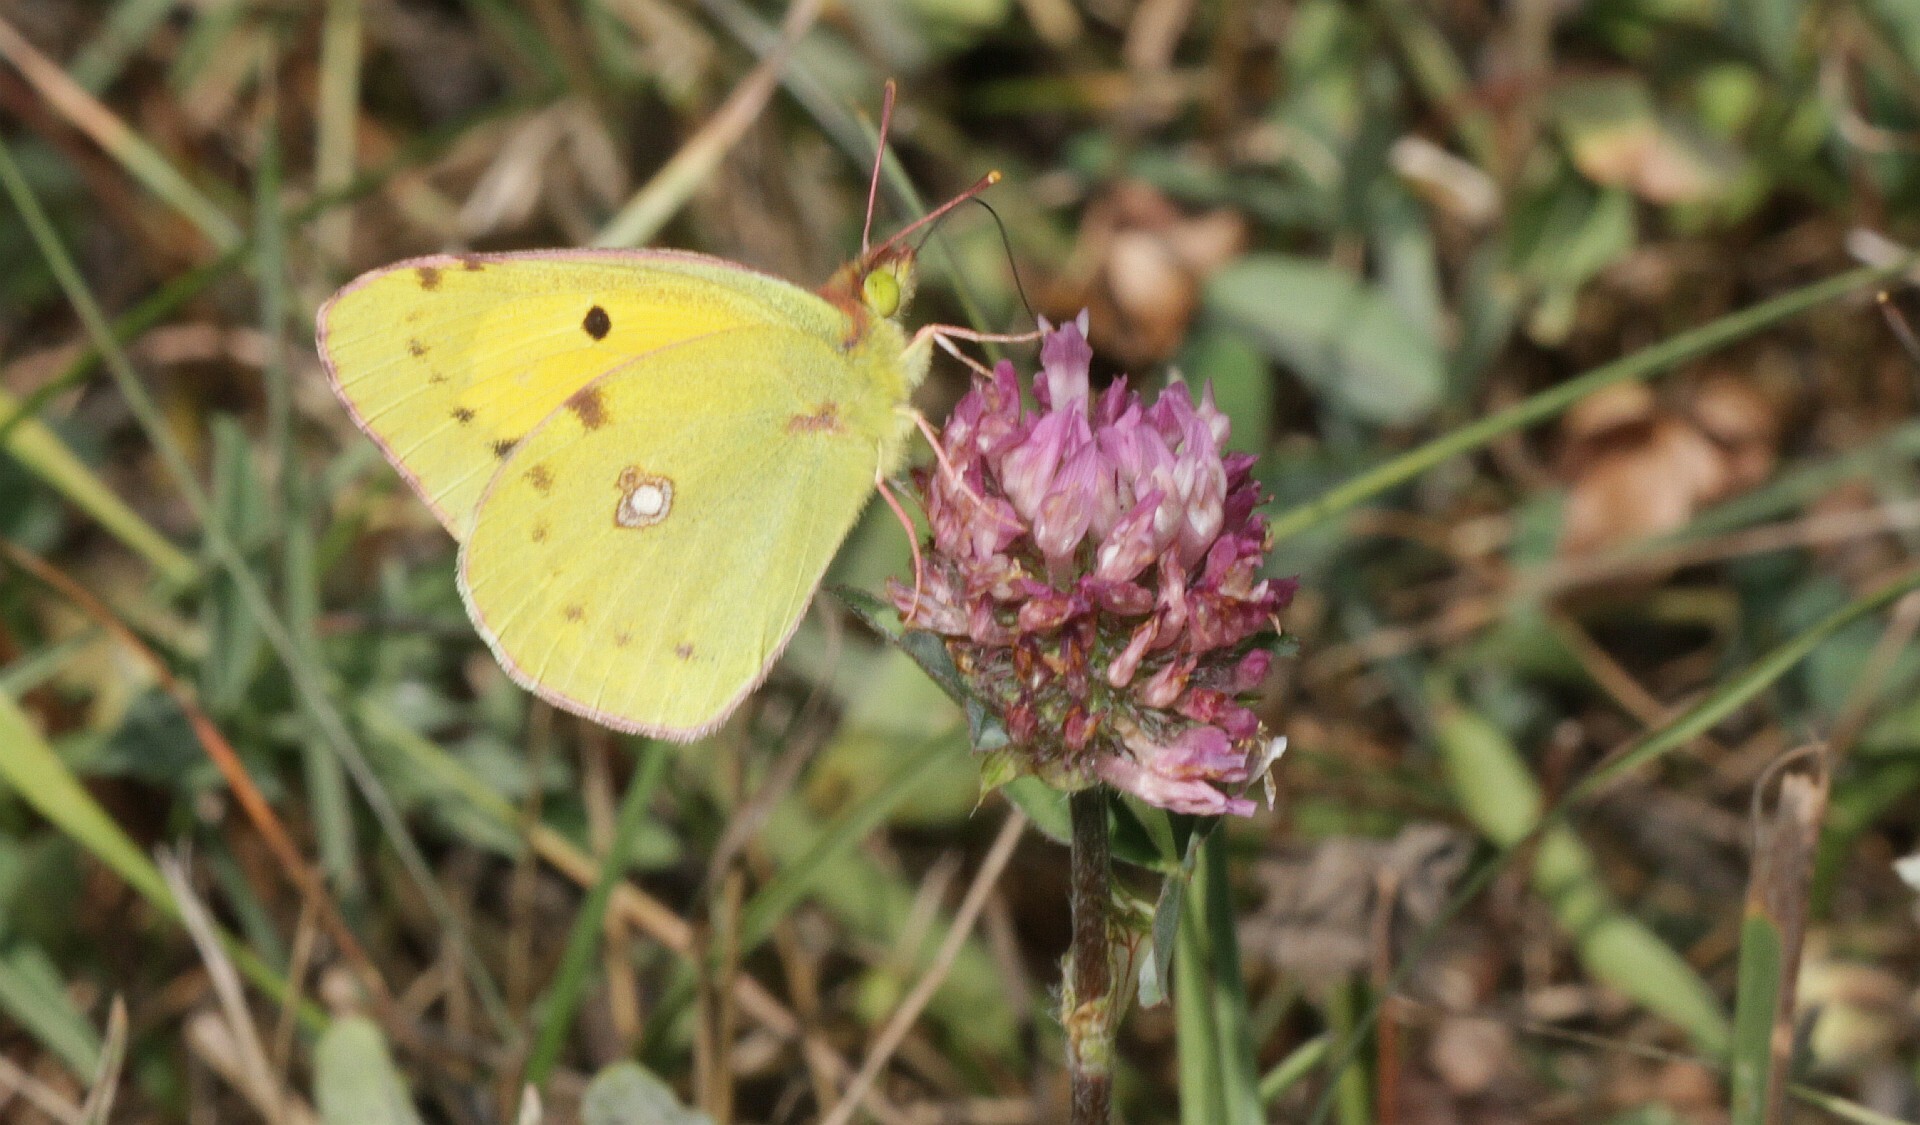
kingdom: Animalia
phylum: Arthropoda
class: Insecta
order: Lepidoptera
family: Pieridae
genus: Colias
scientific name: Colias croceus
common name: Clouded yellow
